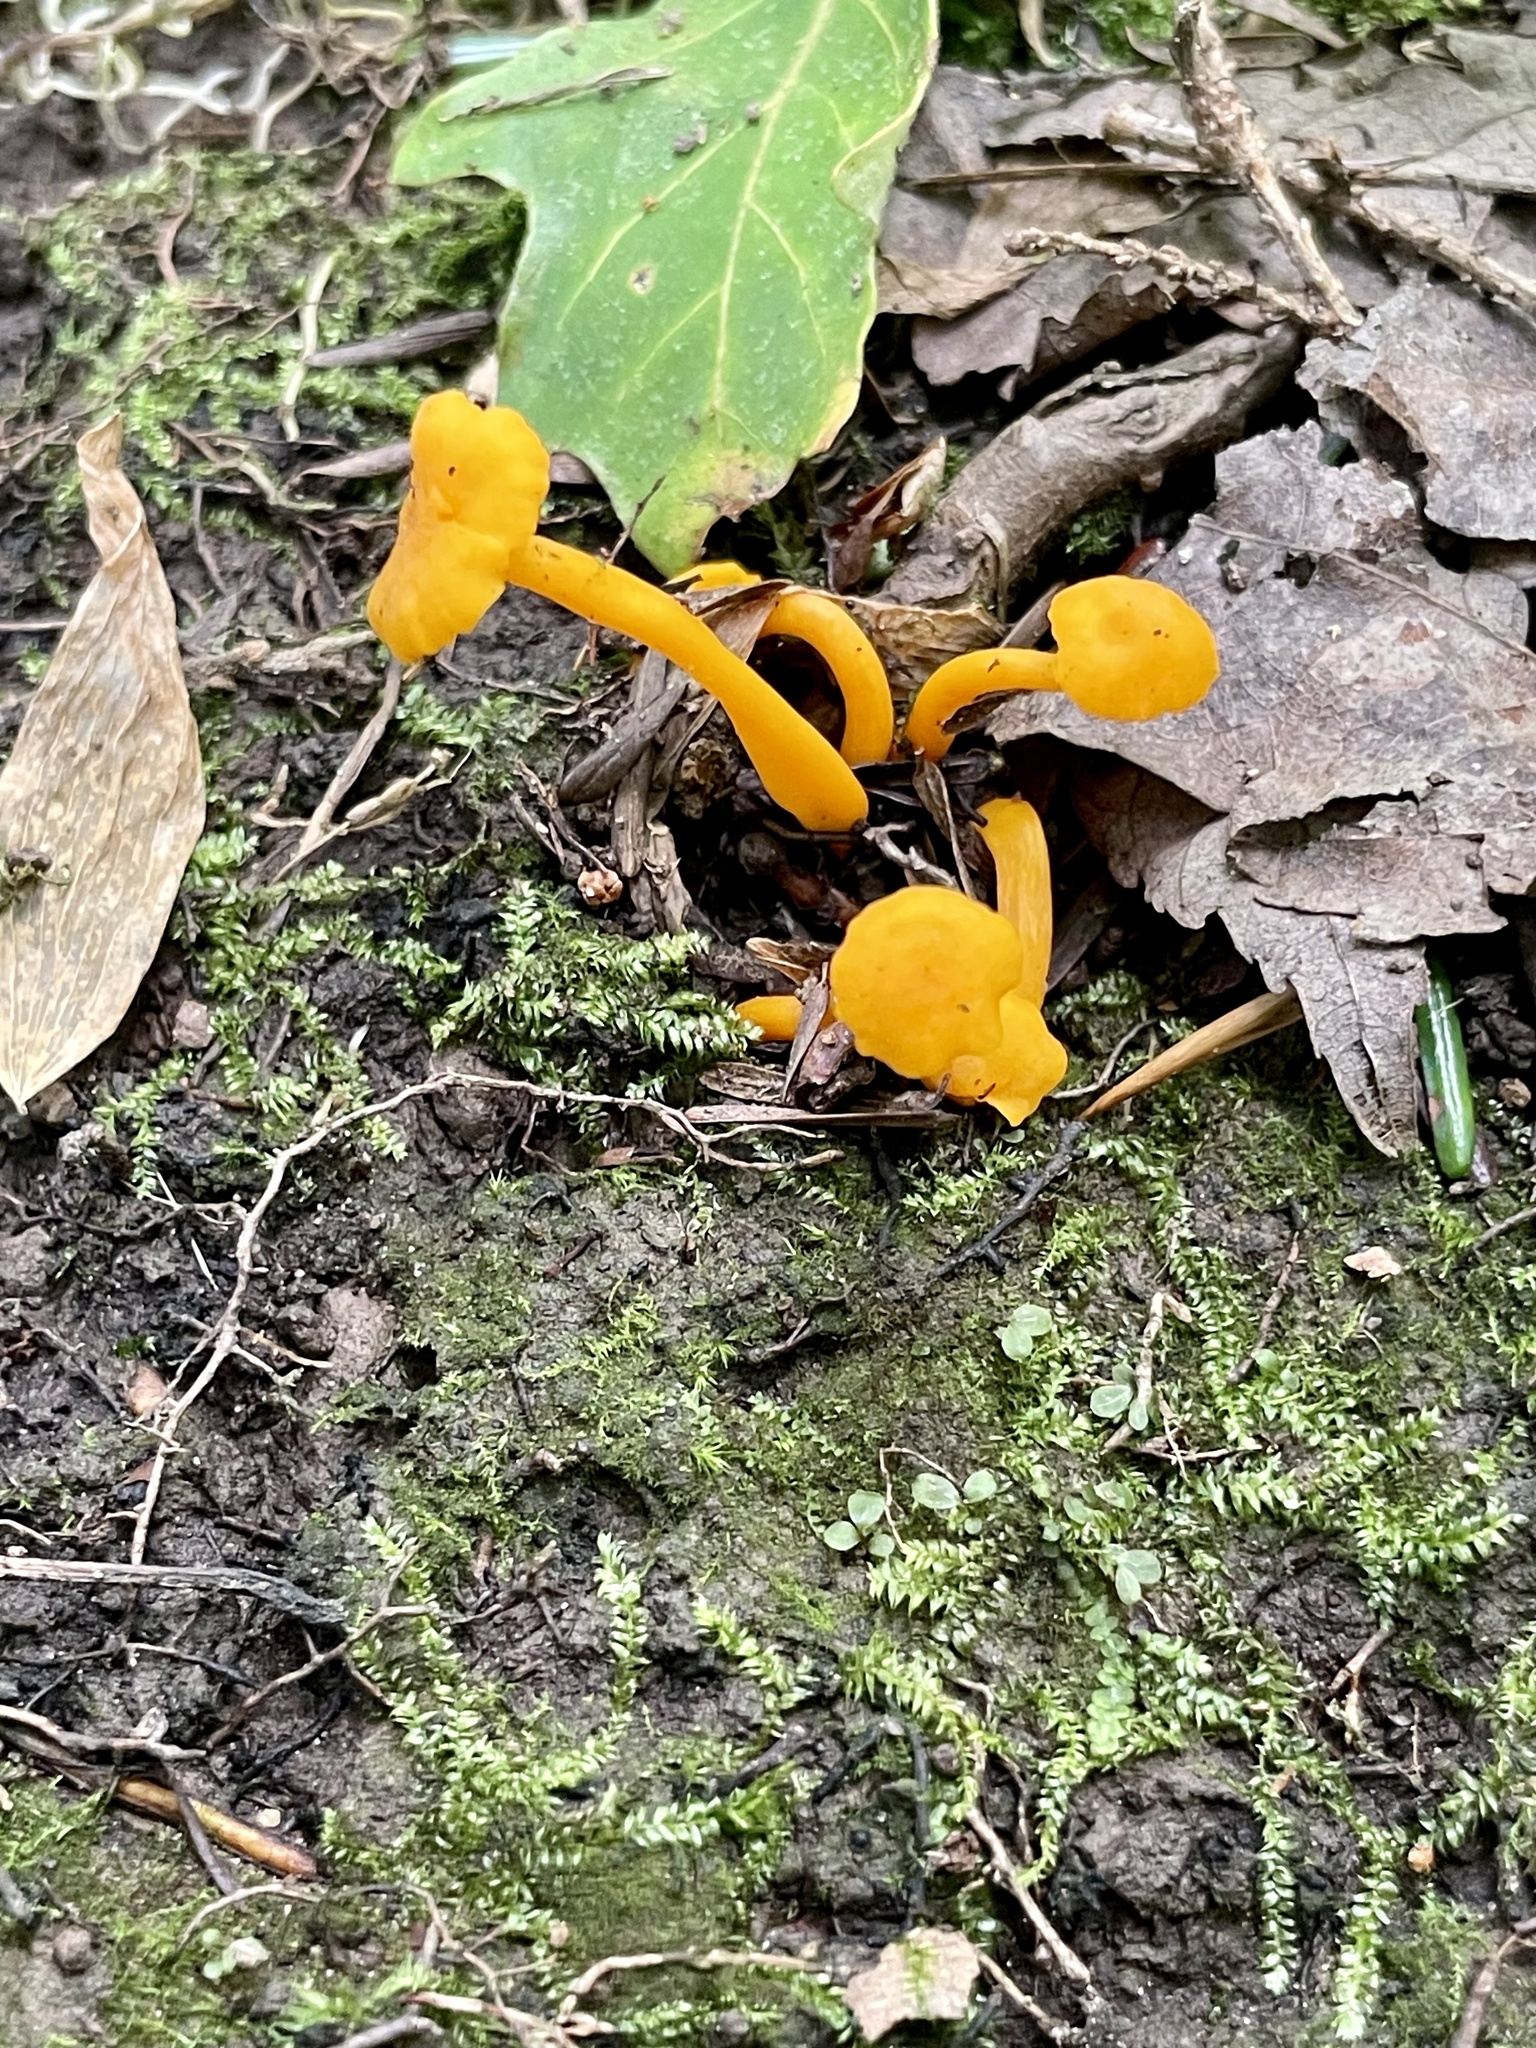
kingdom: Fungi
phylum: Basidiomycota
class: Agaricomycetes
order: Cantharellales
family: Hydnaceae
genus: Cantharellus
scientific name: Cantharellus minor
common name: Small chanterelle
